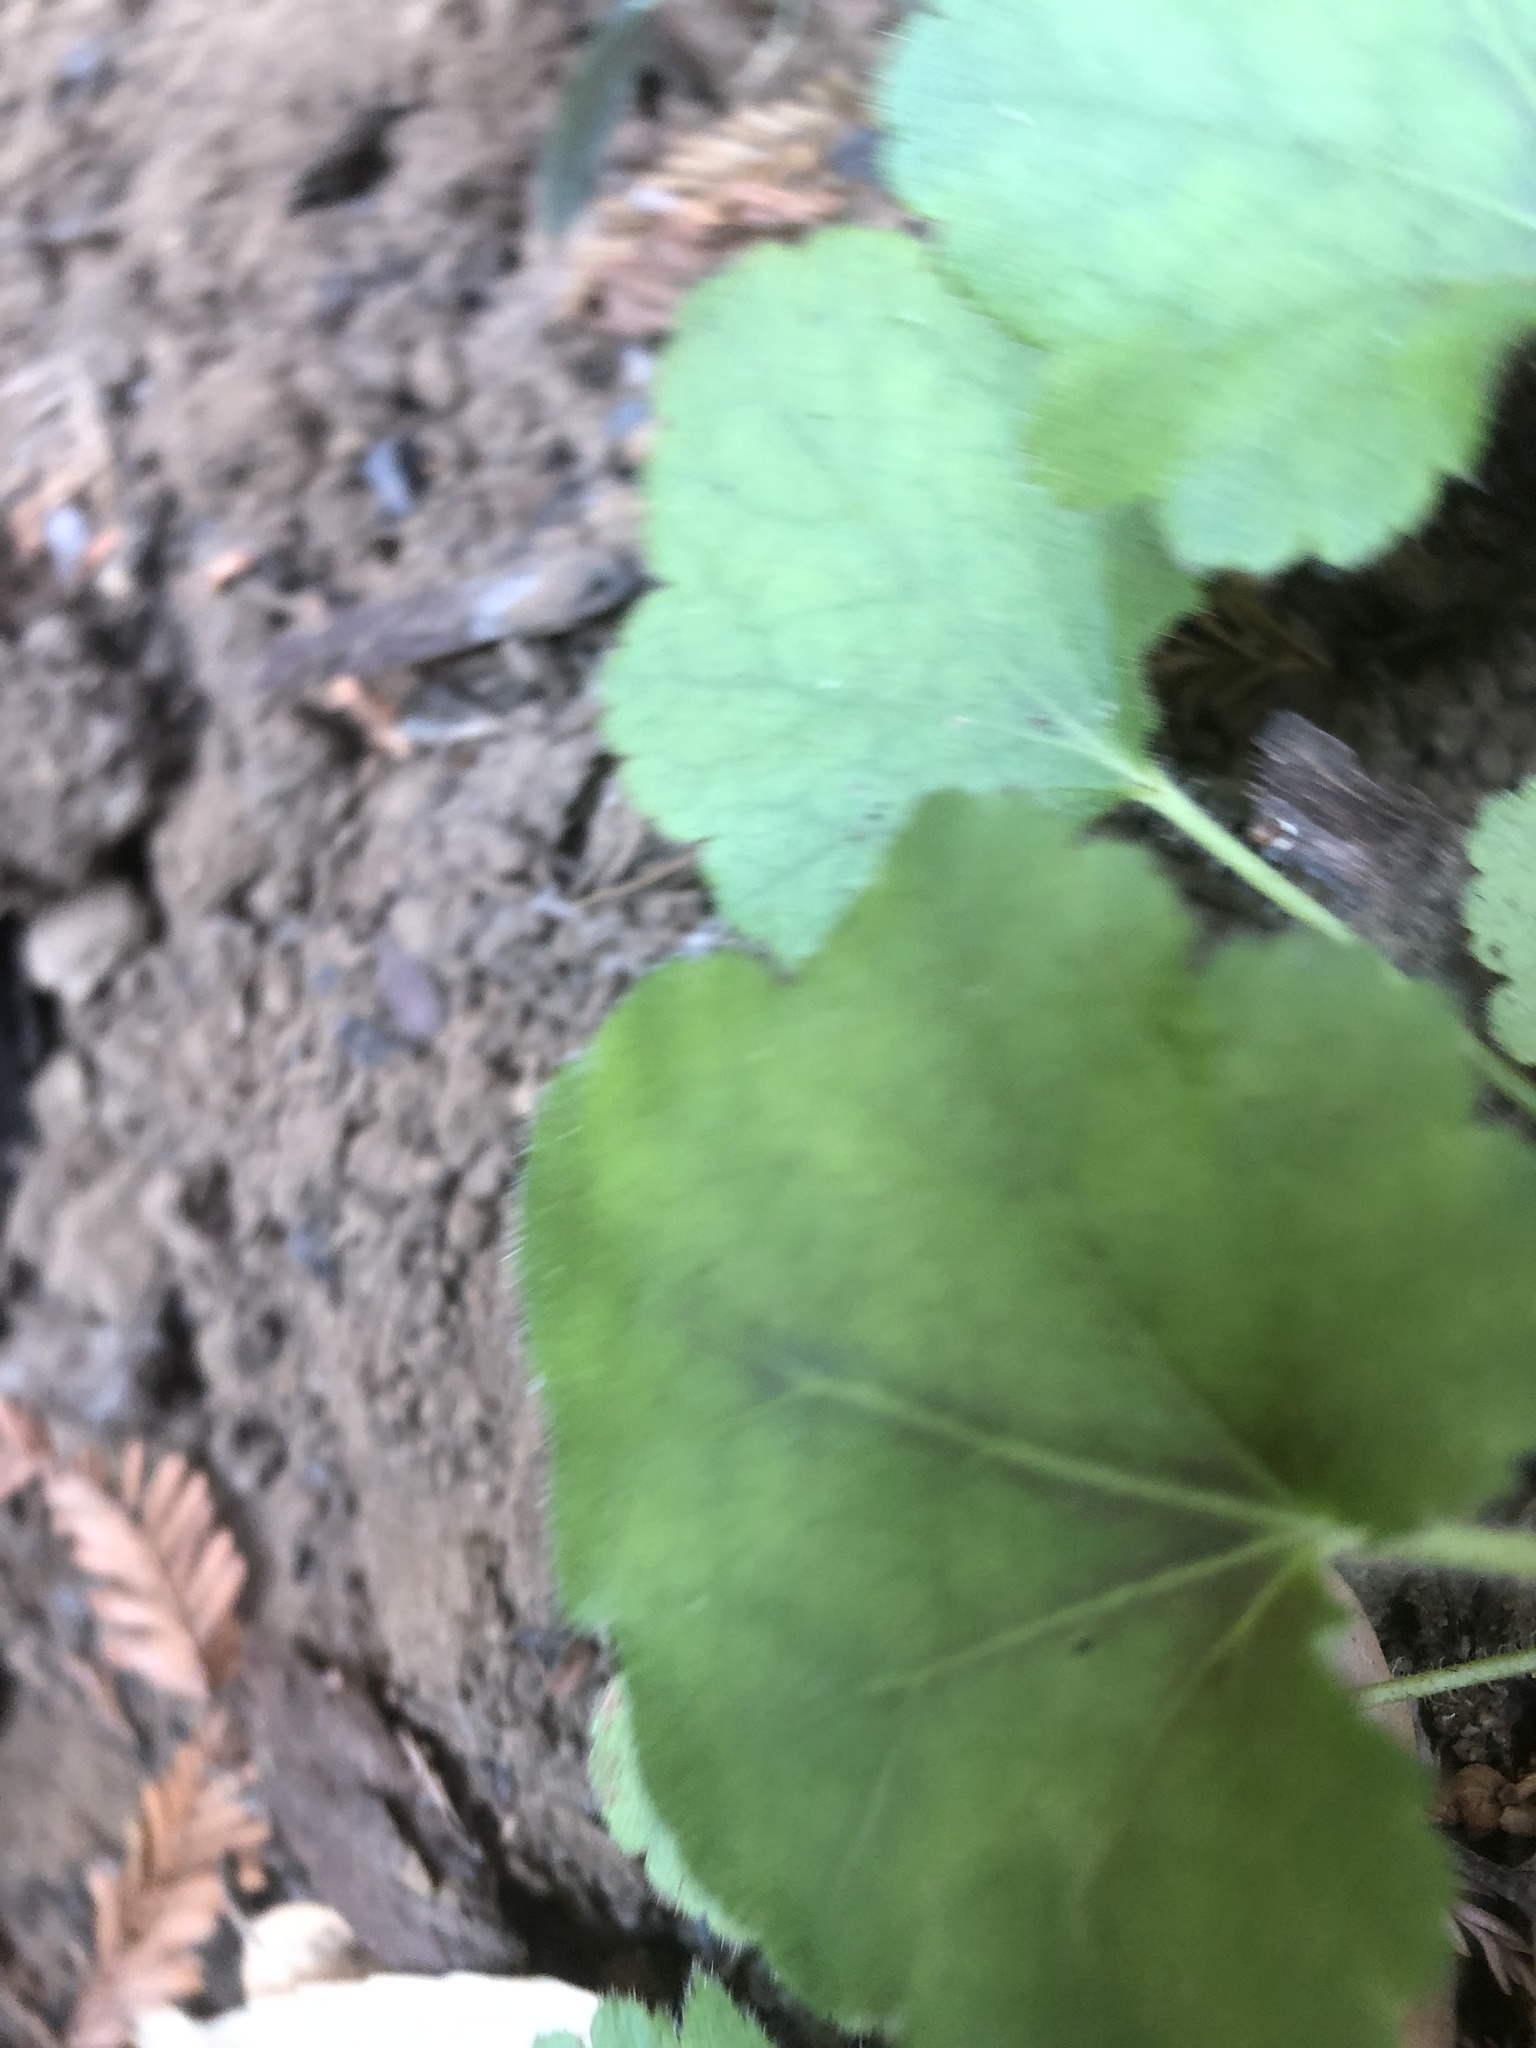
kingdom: Plantae
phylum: Tracheophyta
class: Magnoliopsida
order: Saxifragales
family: Saxifragaceae
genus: Heuchera
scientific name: Heuchera micrantha
